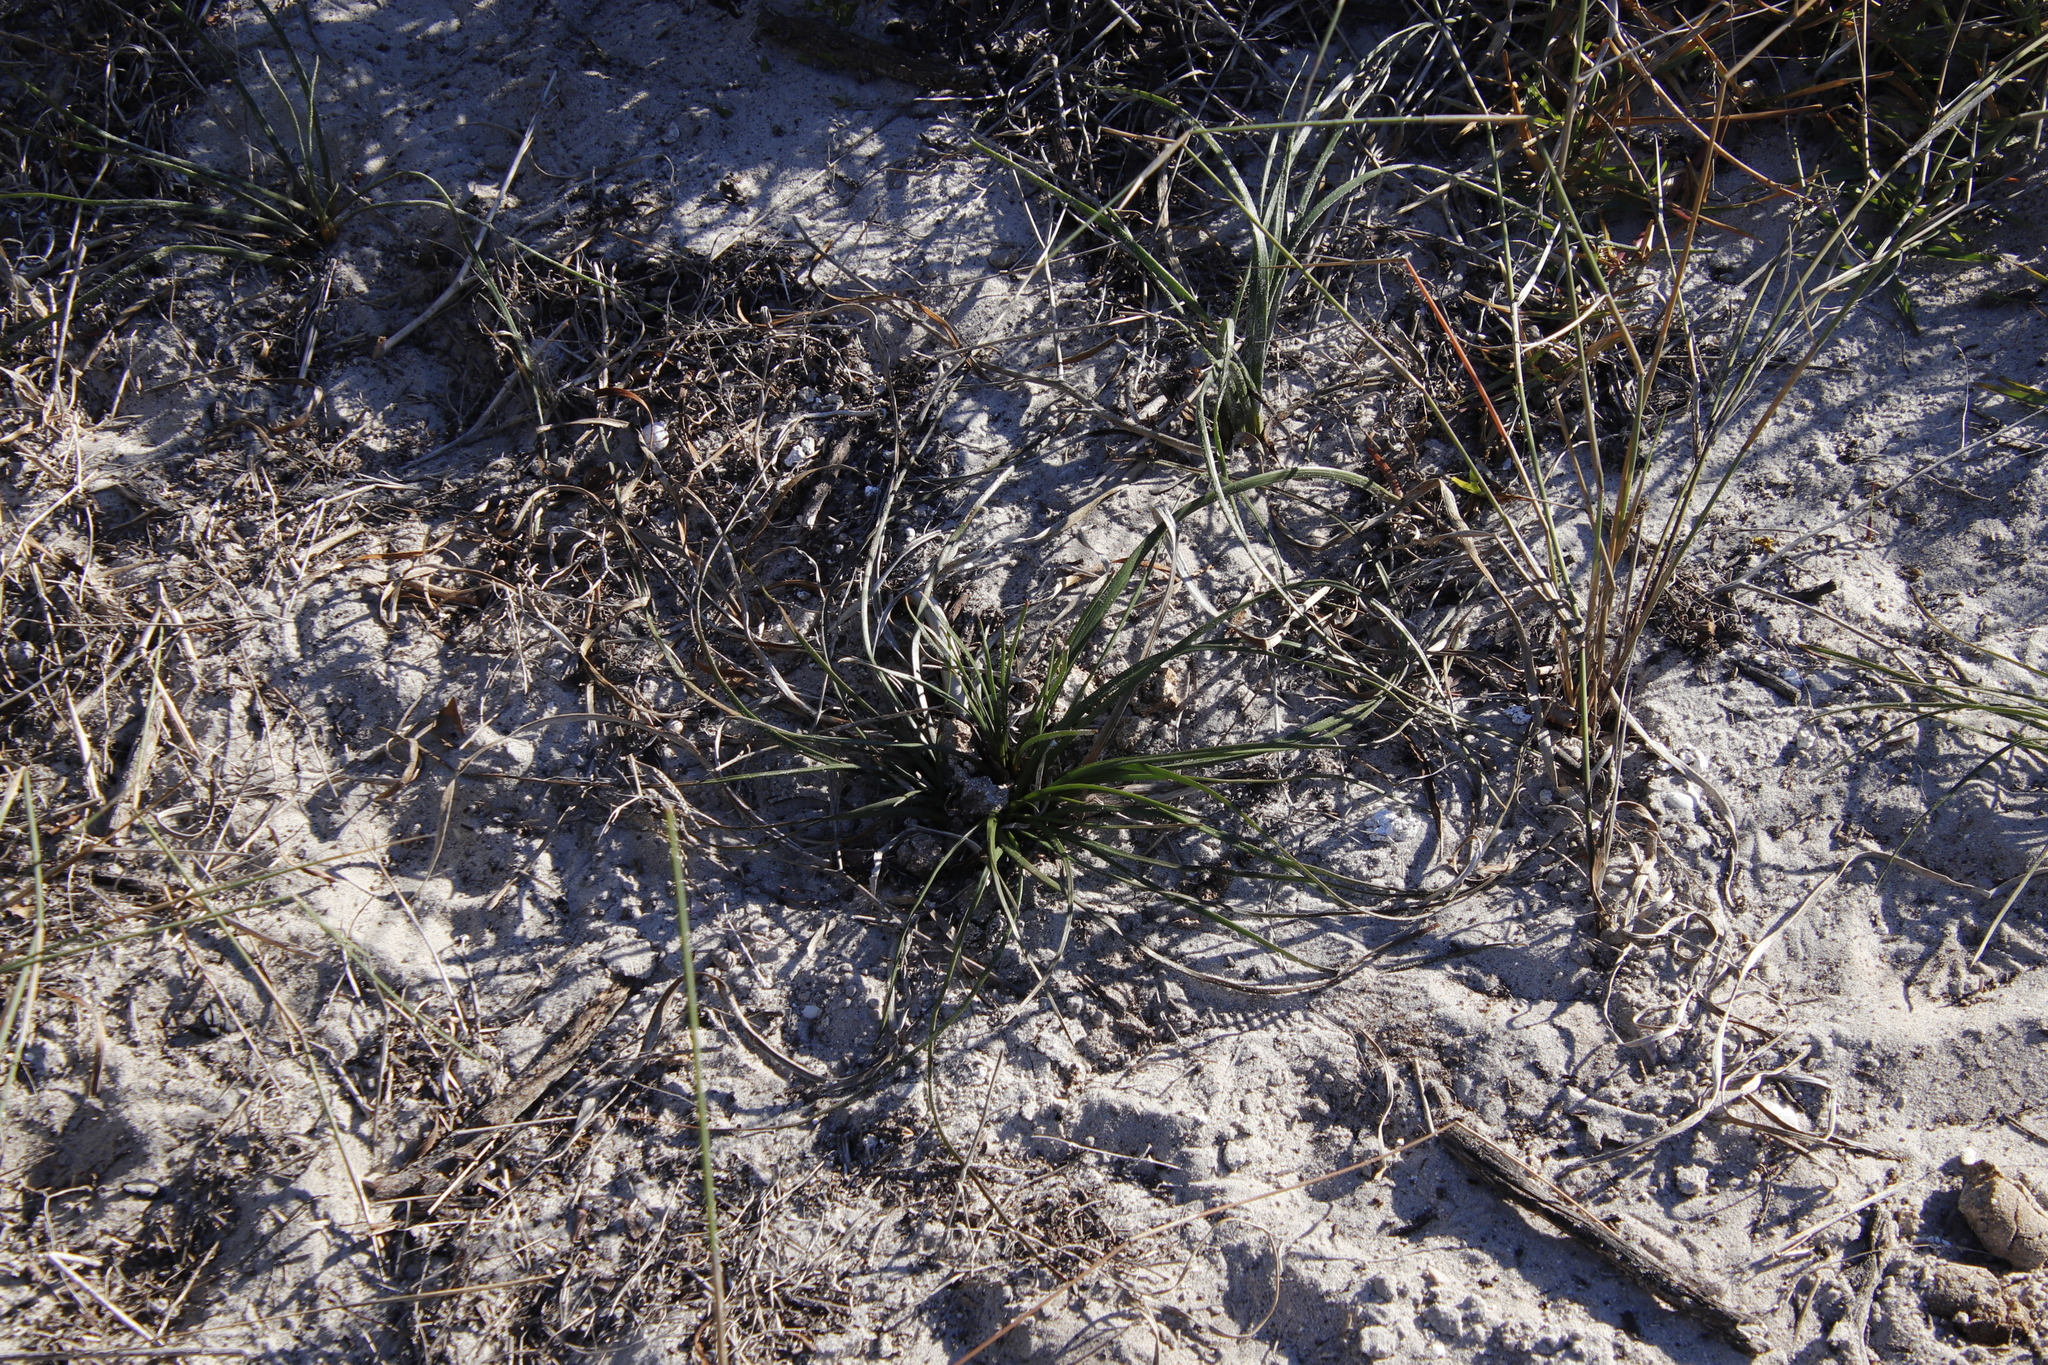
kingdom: Plantae
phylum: Tracheophyta
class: Liliopsida
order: Asparagales
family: Asphodelaceae
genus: Trachyandra
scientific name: Trachyandra divaricata
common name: Dune onionweed
